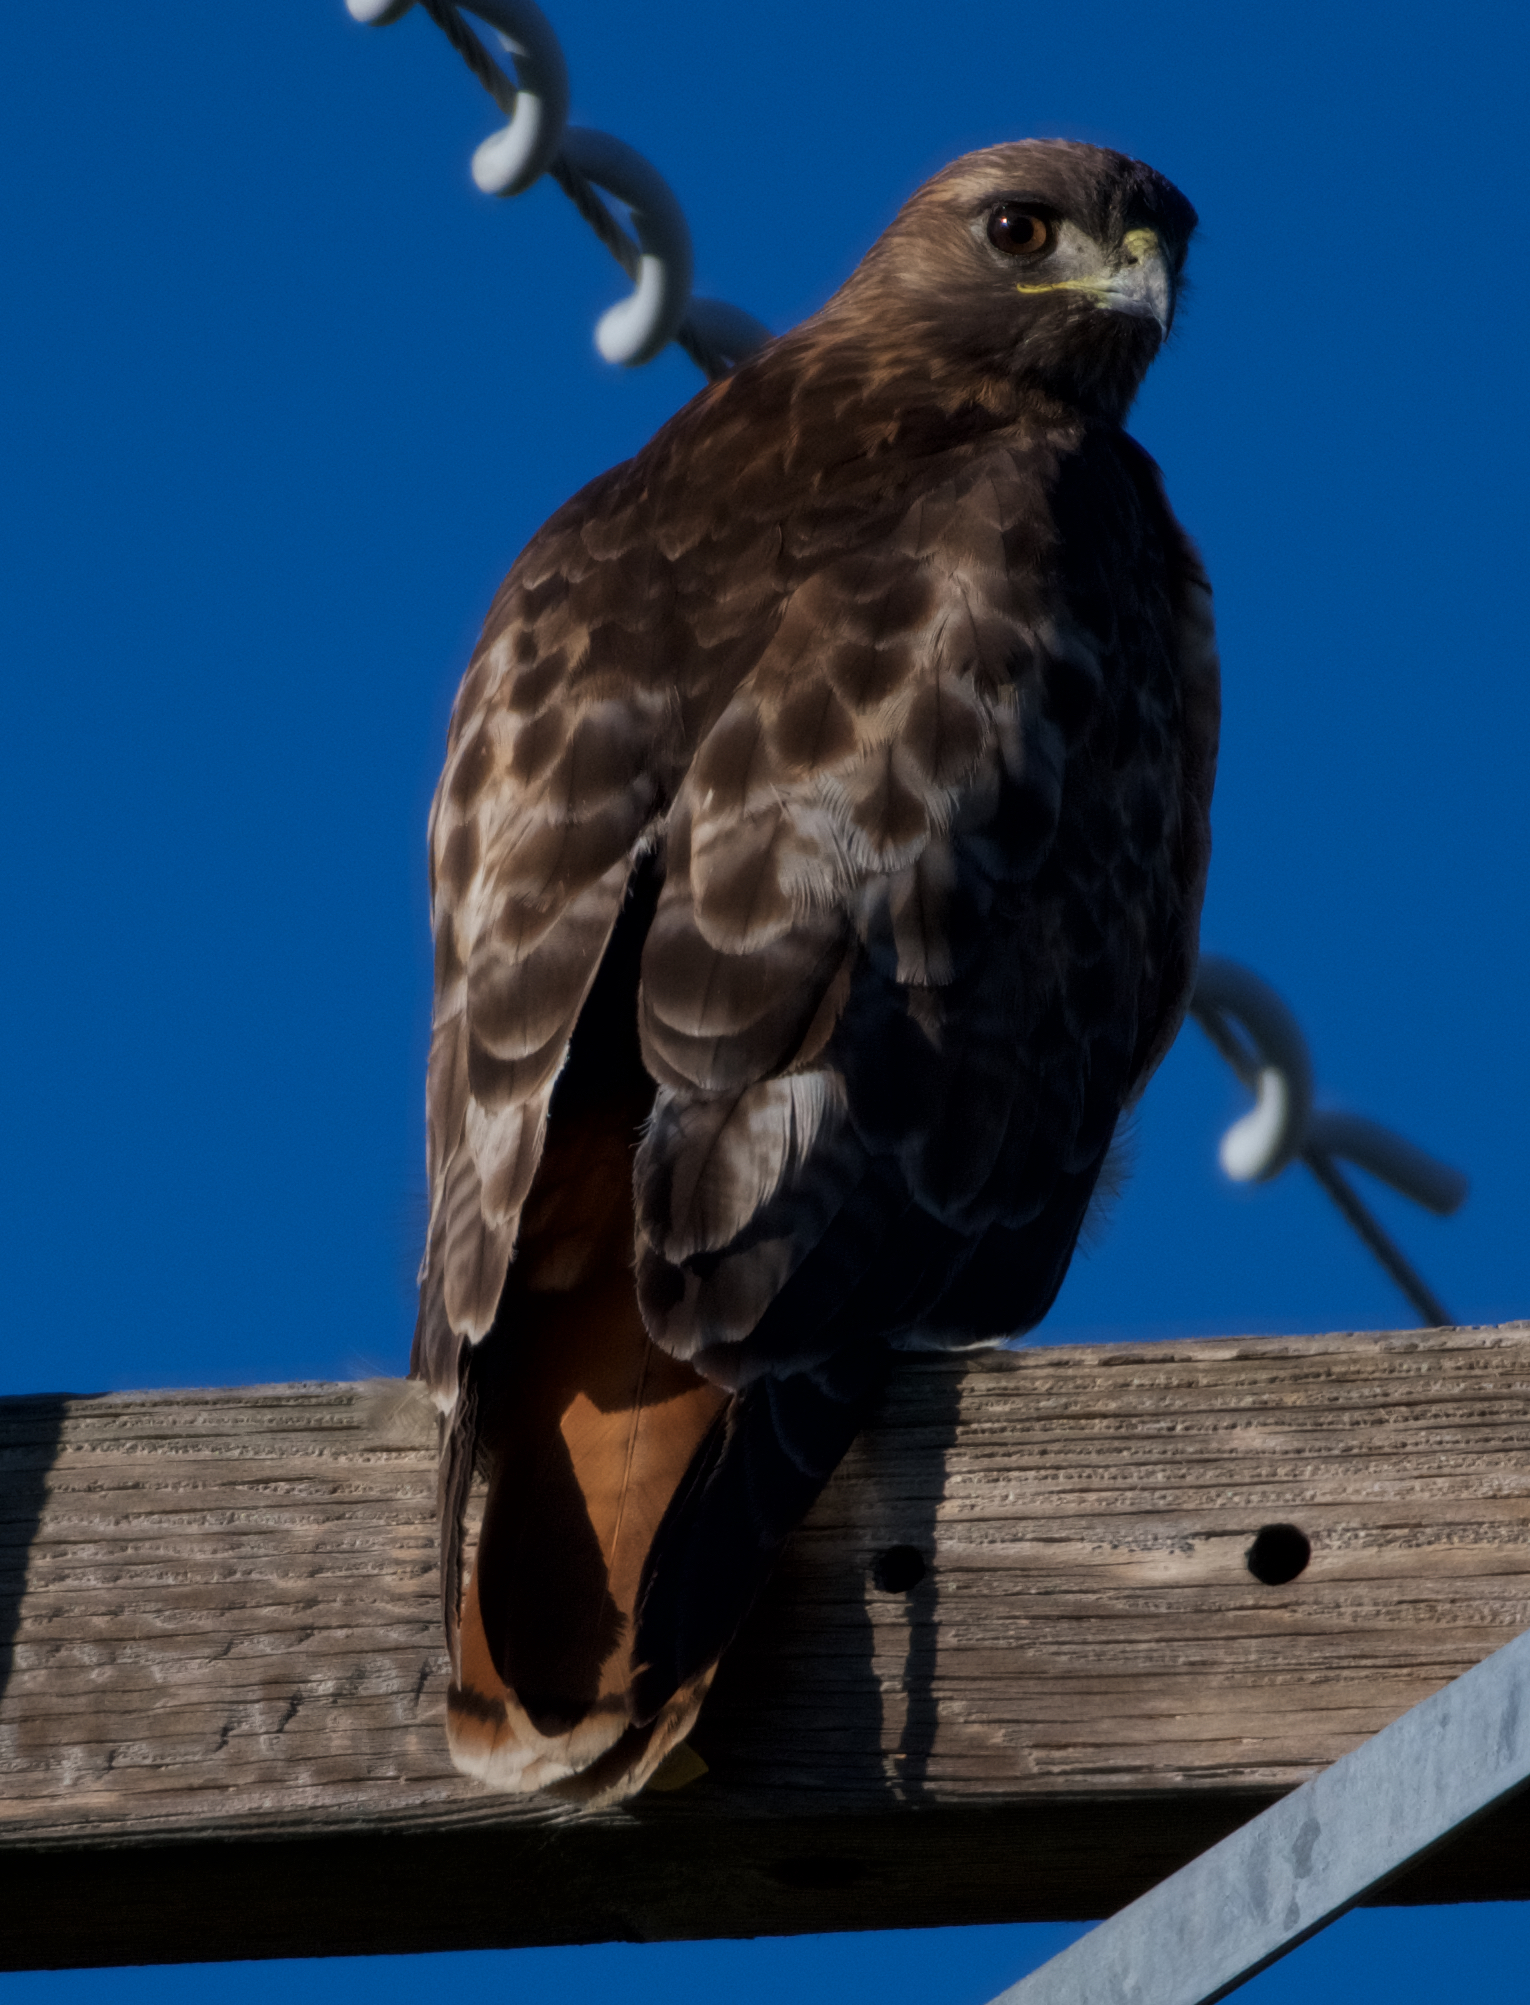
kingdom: Animalia
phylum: Chordata
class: Aves
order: Accipitriformes
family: Accipitridae
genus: Buteo
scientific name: Buteo jamaicensis
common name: Red-tailed hawk
